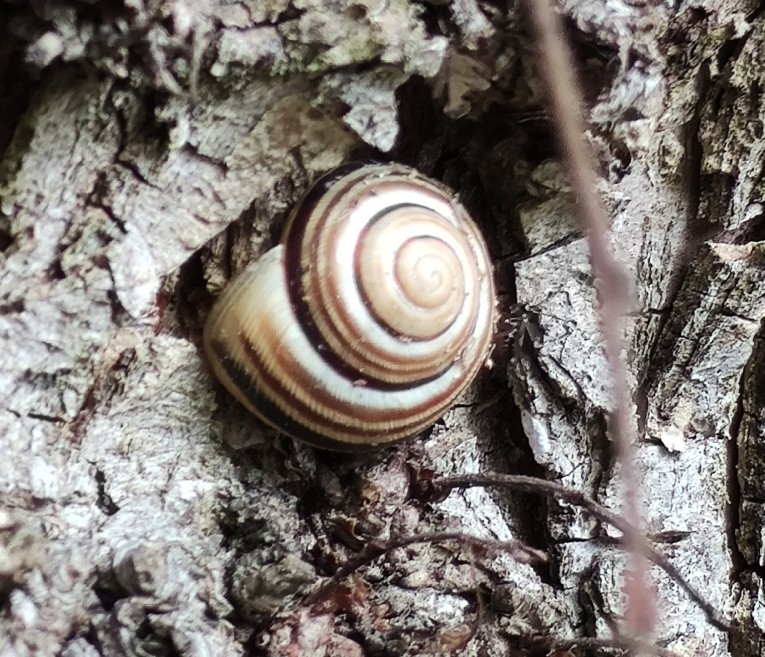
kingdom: Animalia
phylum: Mollusca
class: Gastropoda
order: Stylommatophora
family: Helicidae
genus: Caucasotachea
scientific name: Caucasotachea vindobonensis
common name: European helicid land snail
